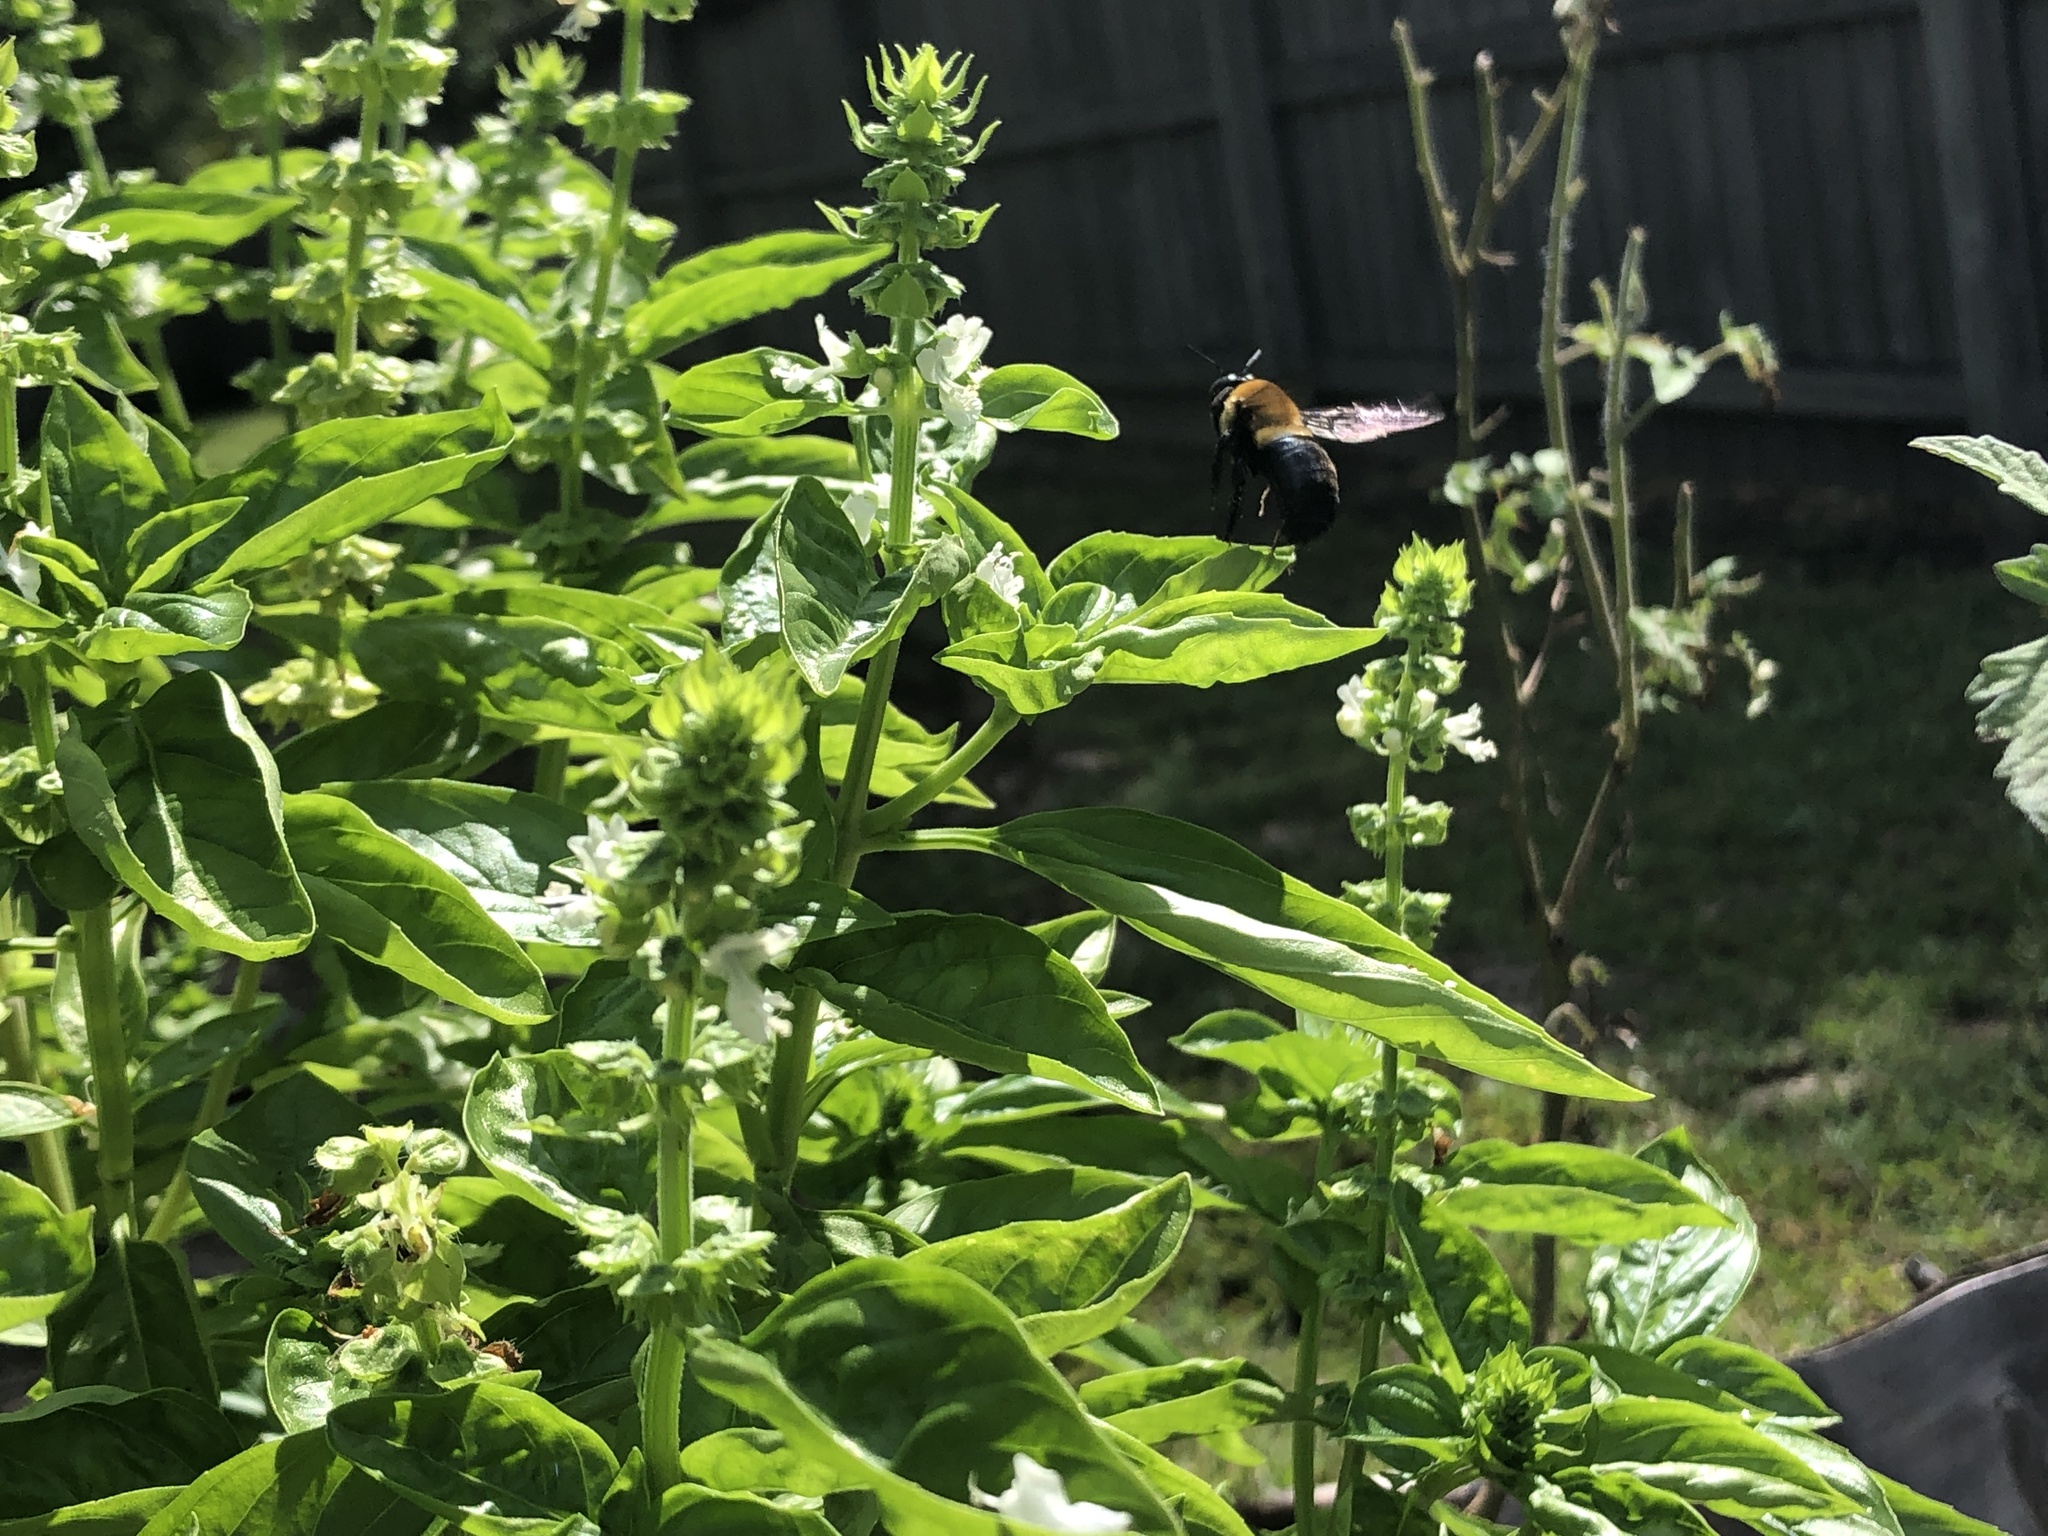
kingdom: Animalia
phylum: Arthropoda
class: Insecta
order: Hymenoptera
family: Apidae
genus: Xylocopa
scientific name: Xylocopa virginica
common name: Carpenter bee
